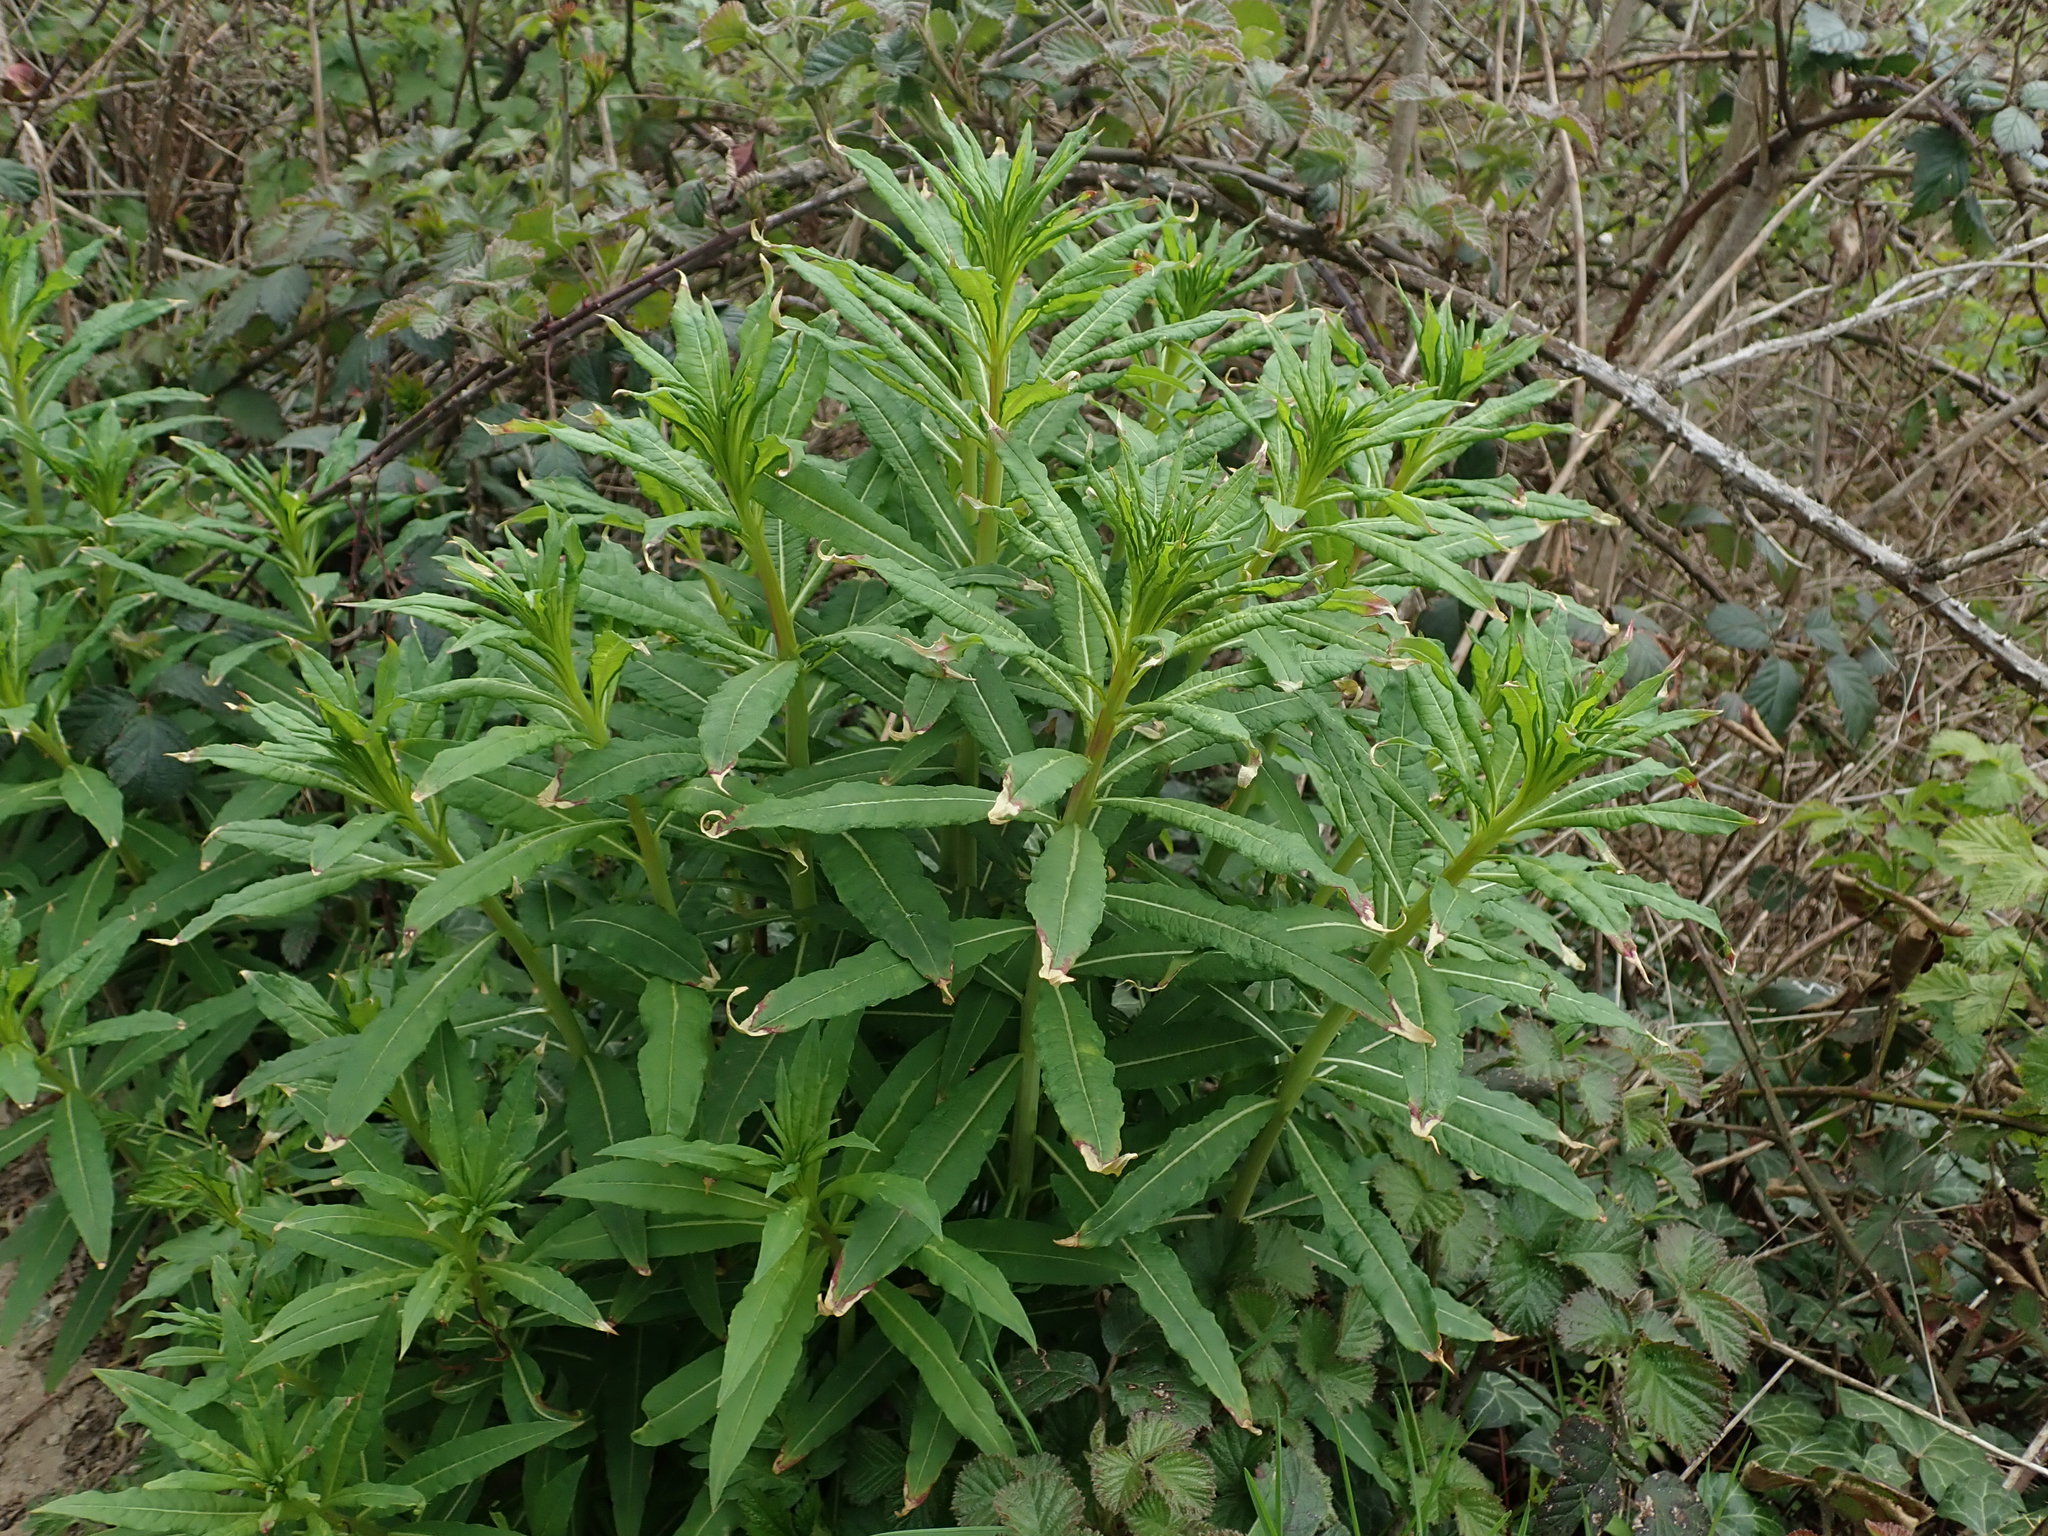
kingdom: Plantae
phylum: Tracheophyta
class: Magnoliopsida
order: Myrtales
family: Onagraceae
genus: Chamaenerion
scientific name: Chamaenerion angustifolium
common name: Fireweed
